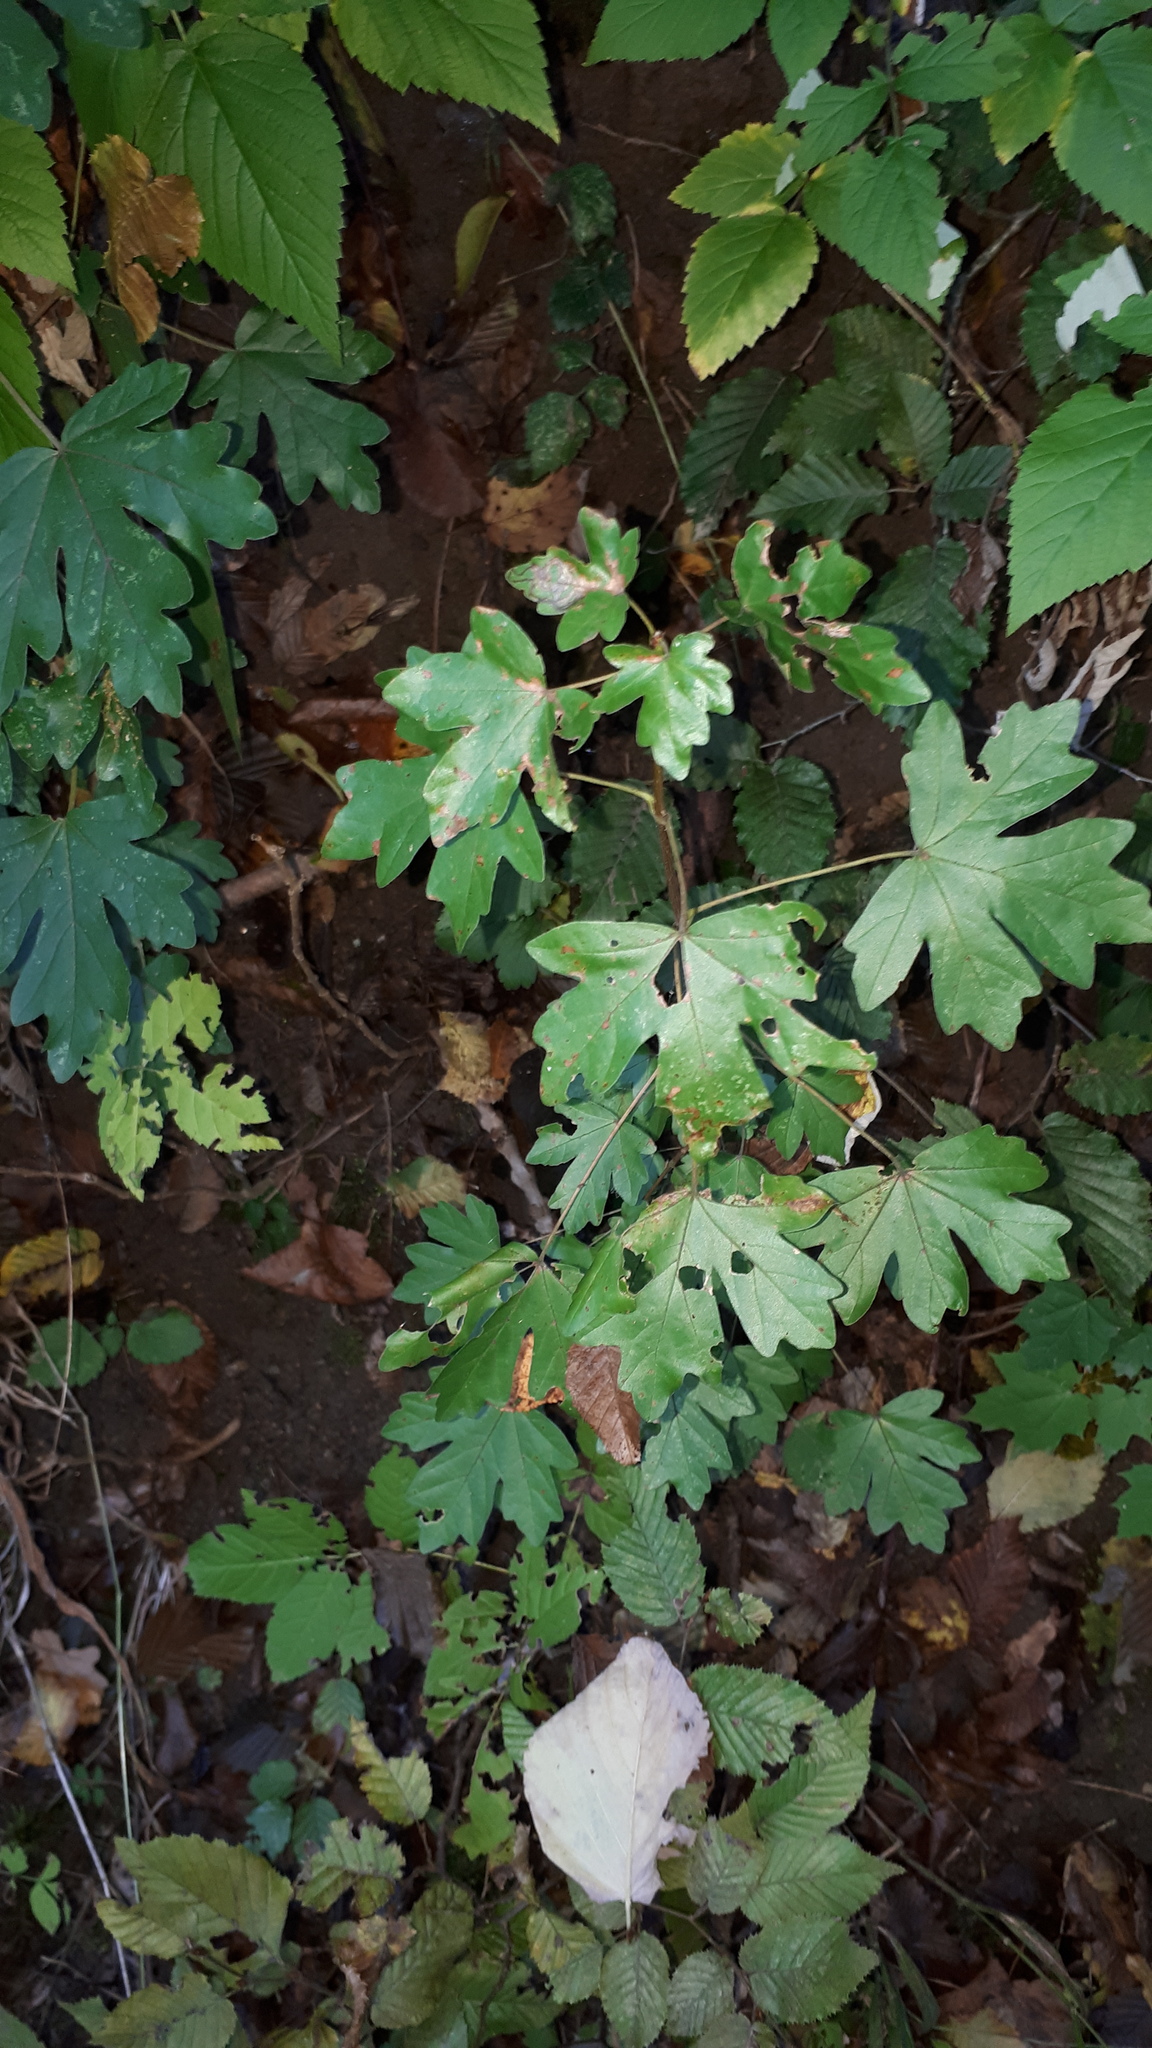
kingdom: Plantae
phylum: Tracheophyta
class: Magnoliopsida
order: Sapindales
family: Sapindaceae
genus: Acer
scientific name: Acer platanoides
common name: Norway maple
